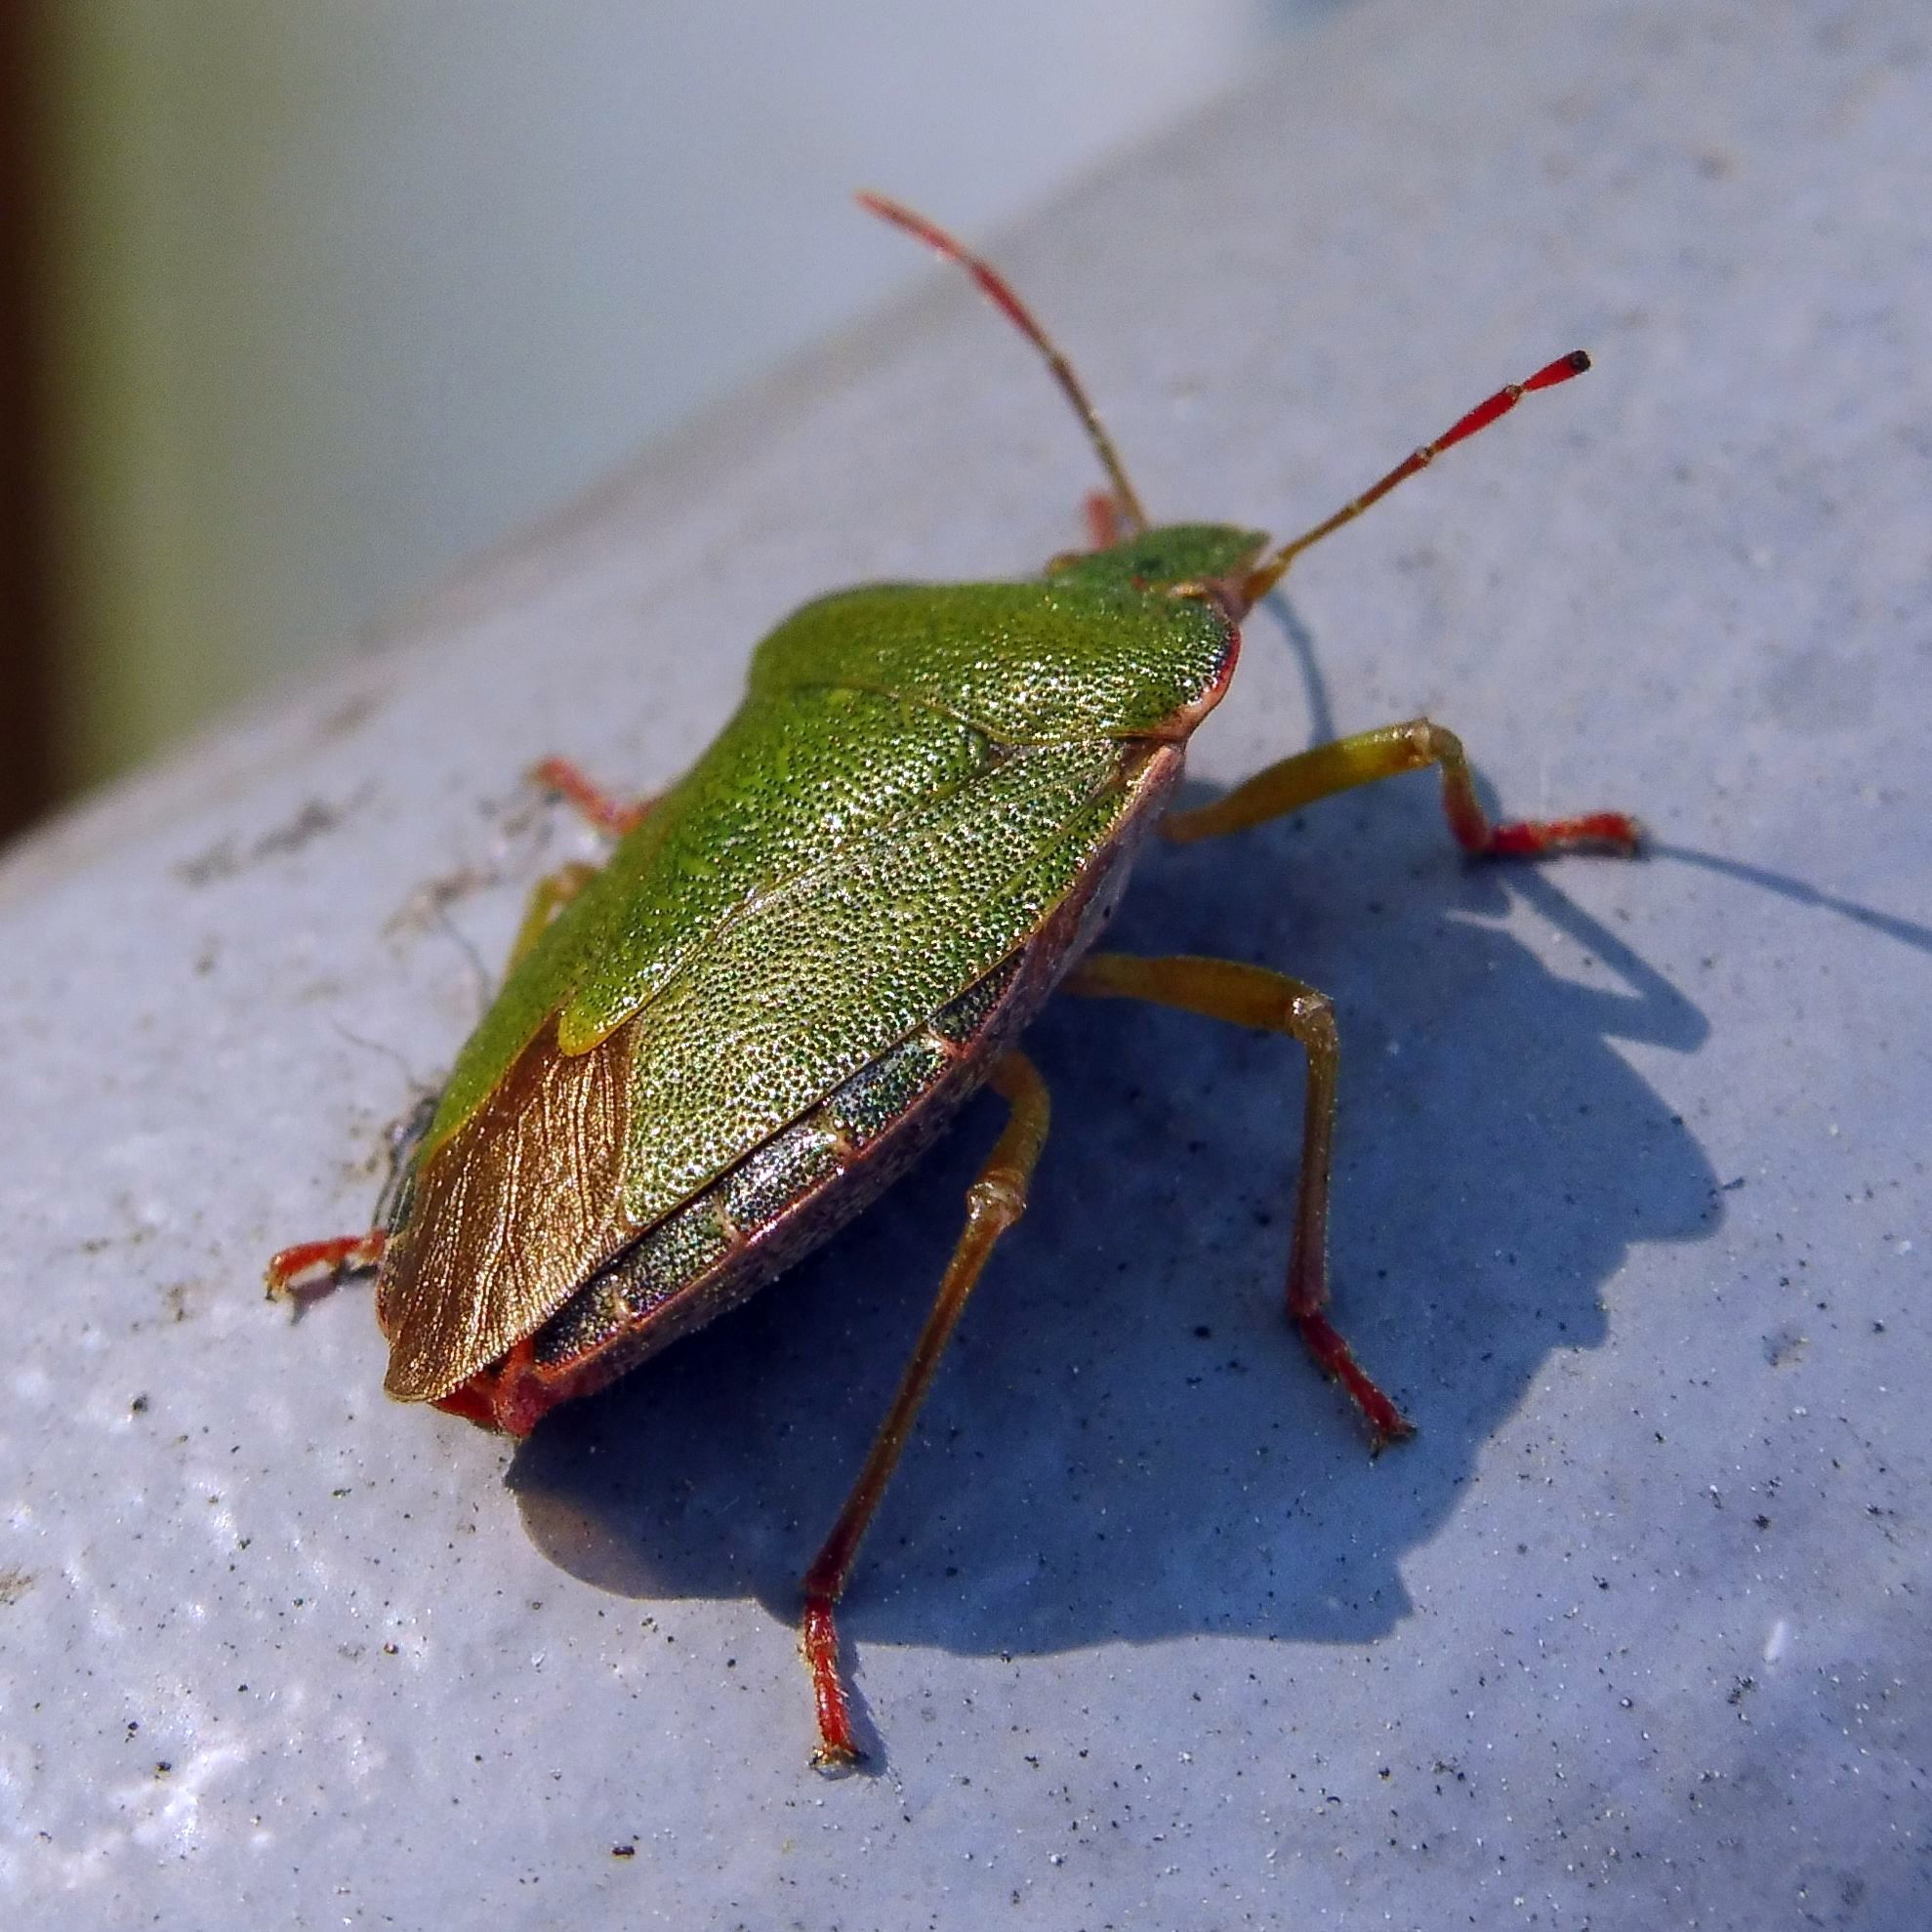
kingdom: Animalia
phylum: Arthropoda
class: Insecta
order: Hemiptera
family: Pentatomidae
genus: Palomena
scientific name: Palomena prasina
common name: Green shieldbug
